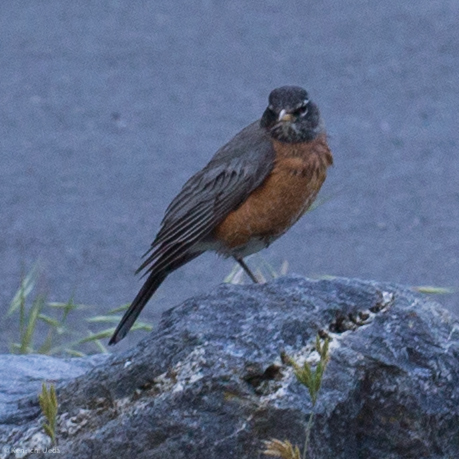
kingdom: Animalia
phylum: Chordata
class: Aves
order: Passeriformes
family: Turdidae
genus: Turdus
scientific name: Turdus migratorius
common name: American robin
